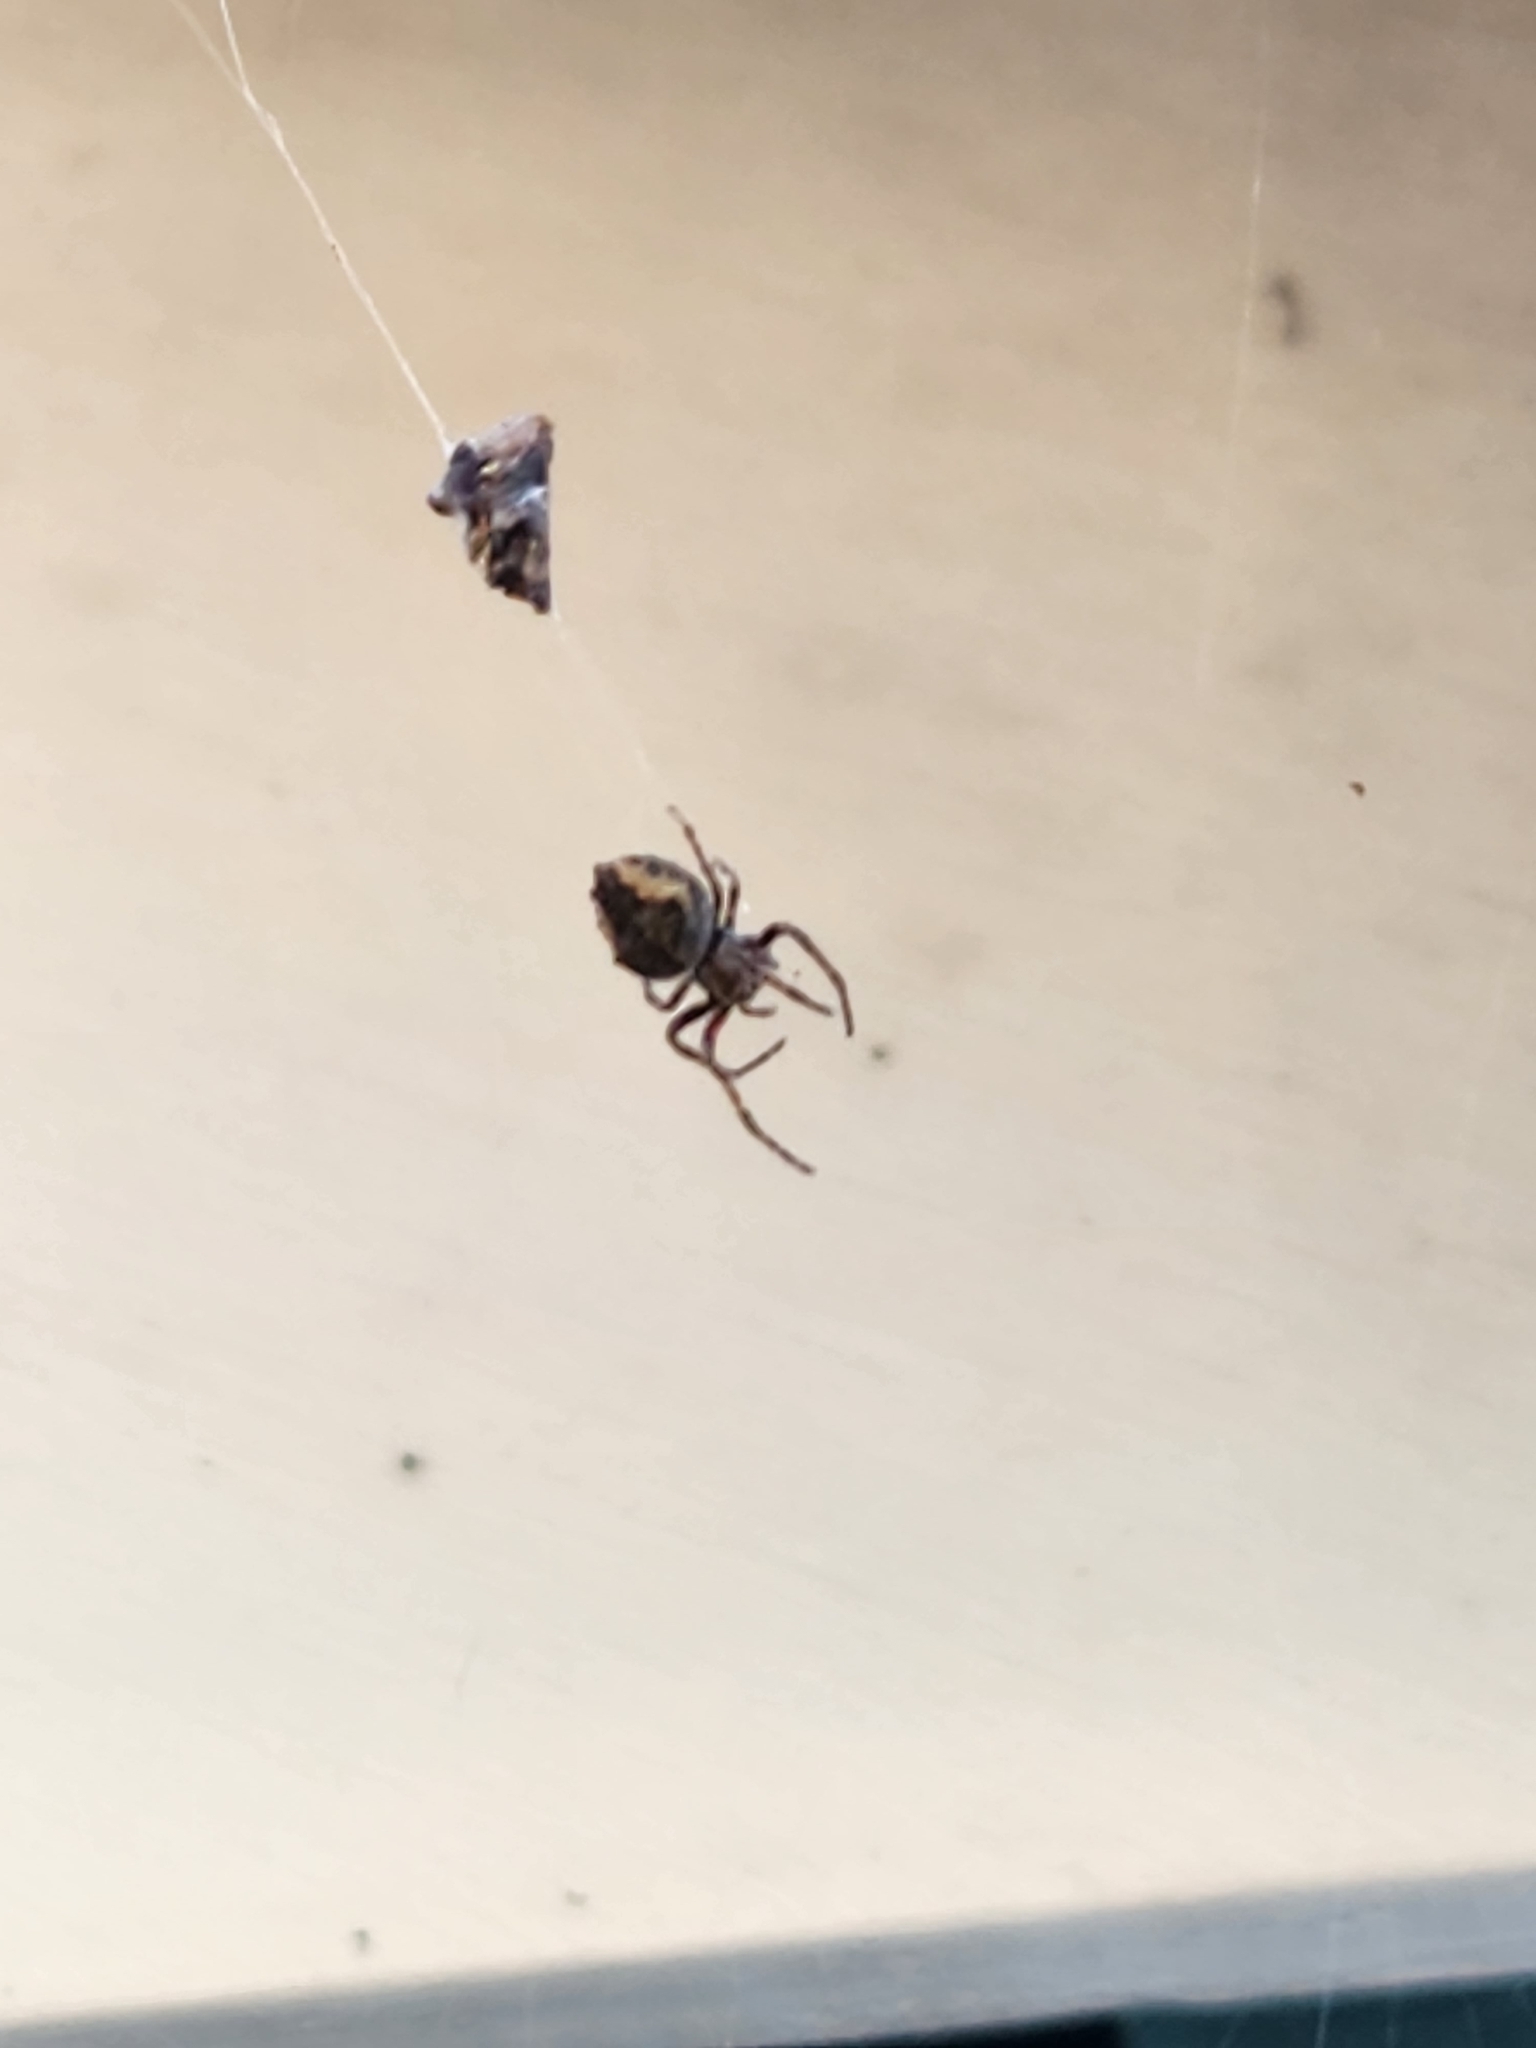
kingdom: Animalia
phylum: Arthropoda
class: Arachnida
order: Araneae
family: Araneidae
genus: Eriophora
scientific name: Eriophora pustulosa
